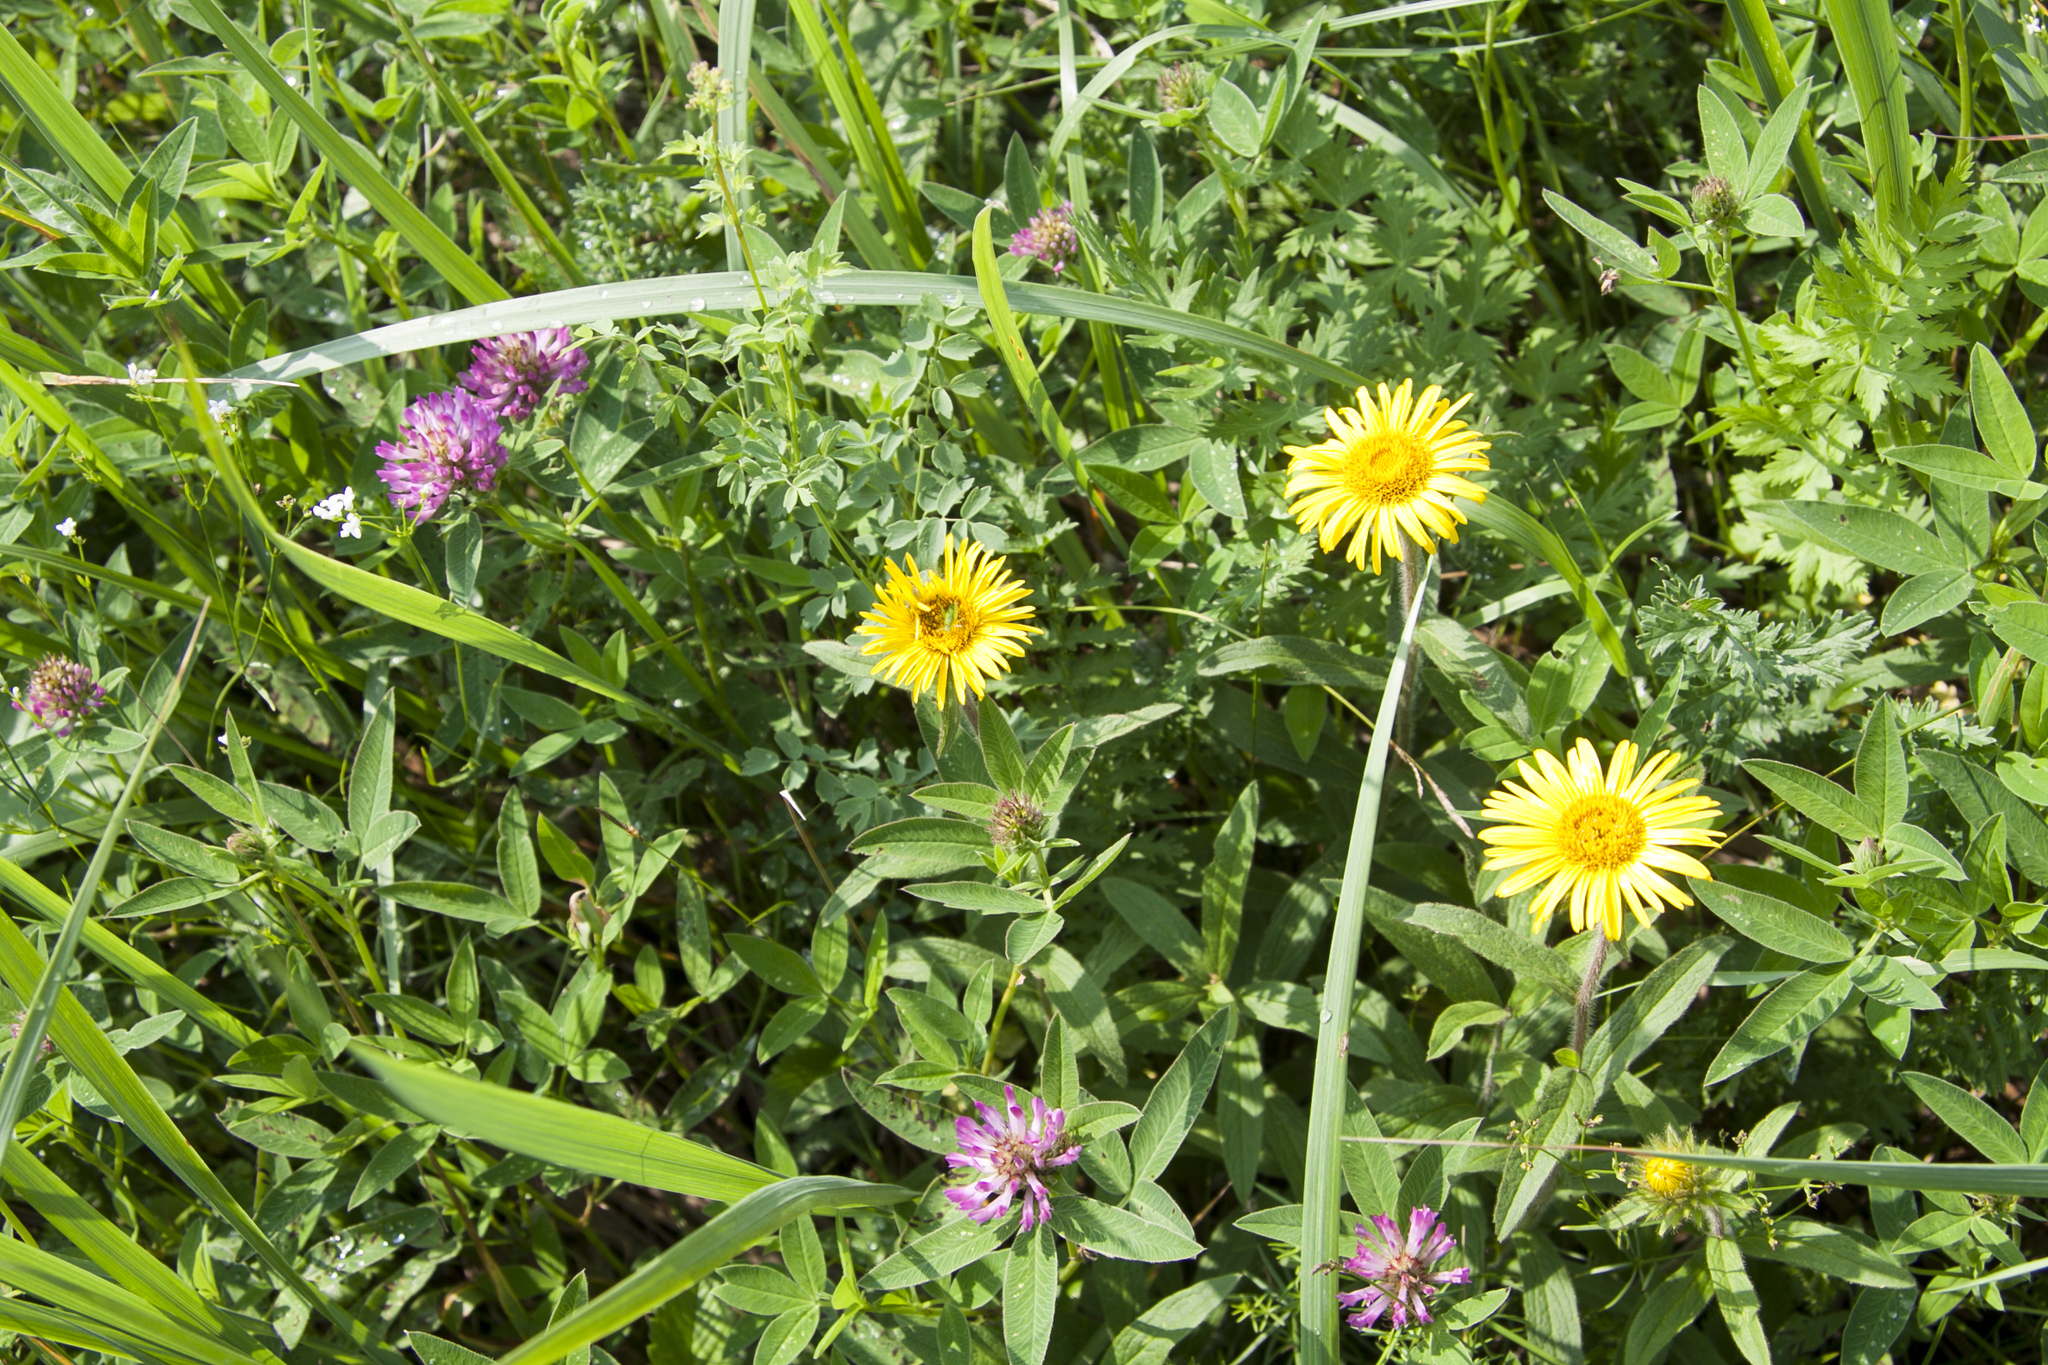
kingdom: Plantae
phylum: Tracheophyta
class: Magnoliopsida
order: Asterales
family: Asteraceae
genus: Pentanema
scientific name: Pentanema hirtum
